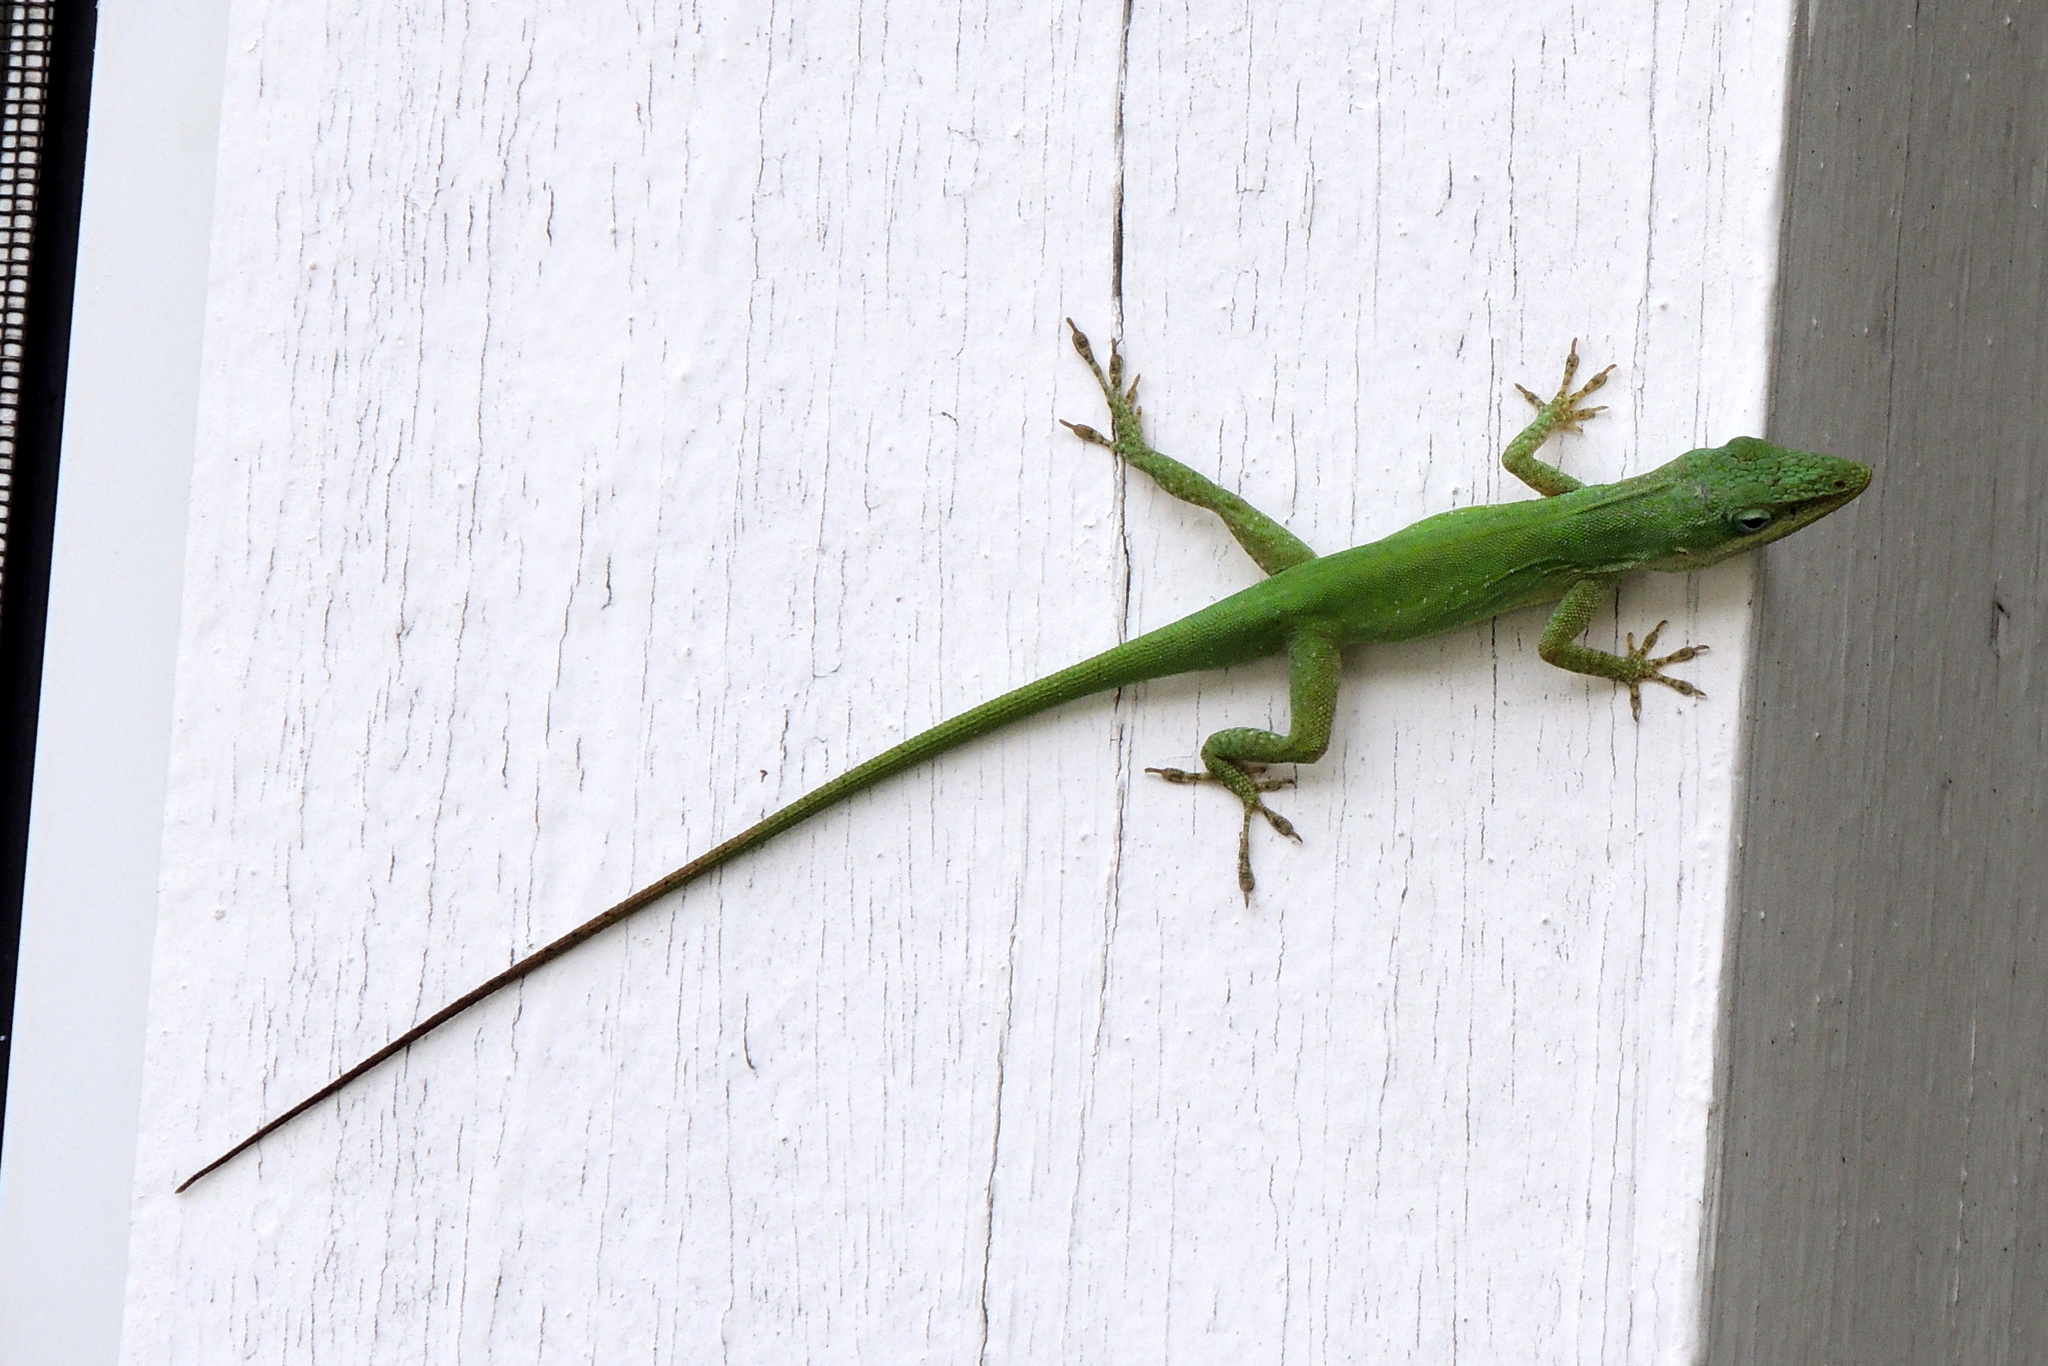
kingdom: Animalia
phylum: Chordata
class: Squamata
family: Dactyloidae
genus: Anolis
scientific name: Anolis carolinensis
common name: Green anole
